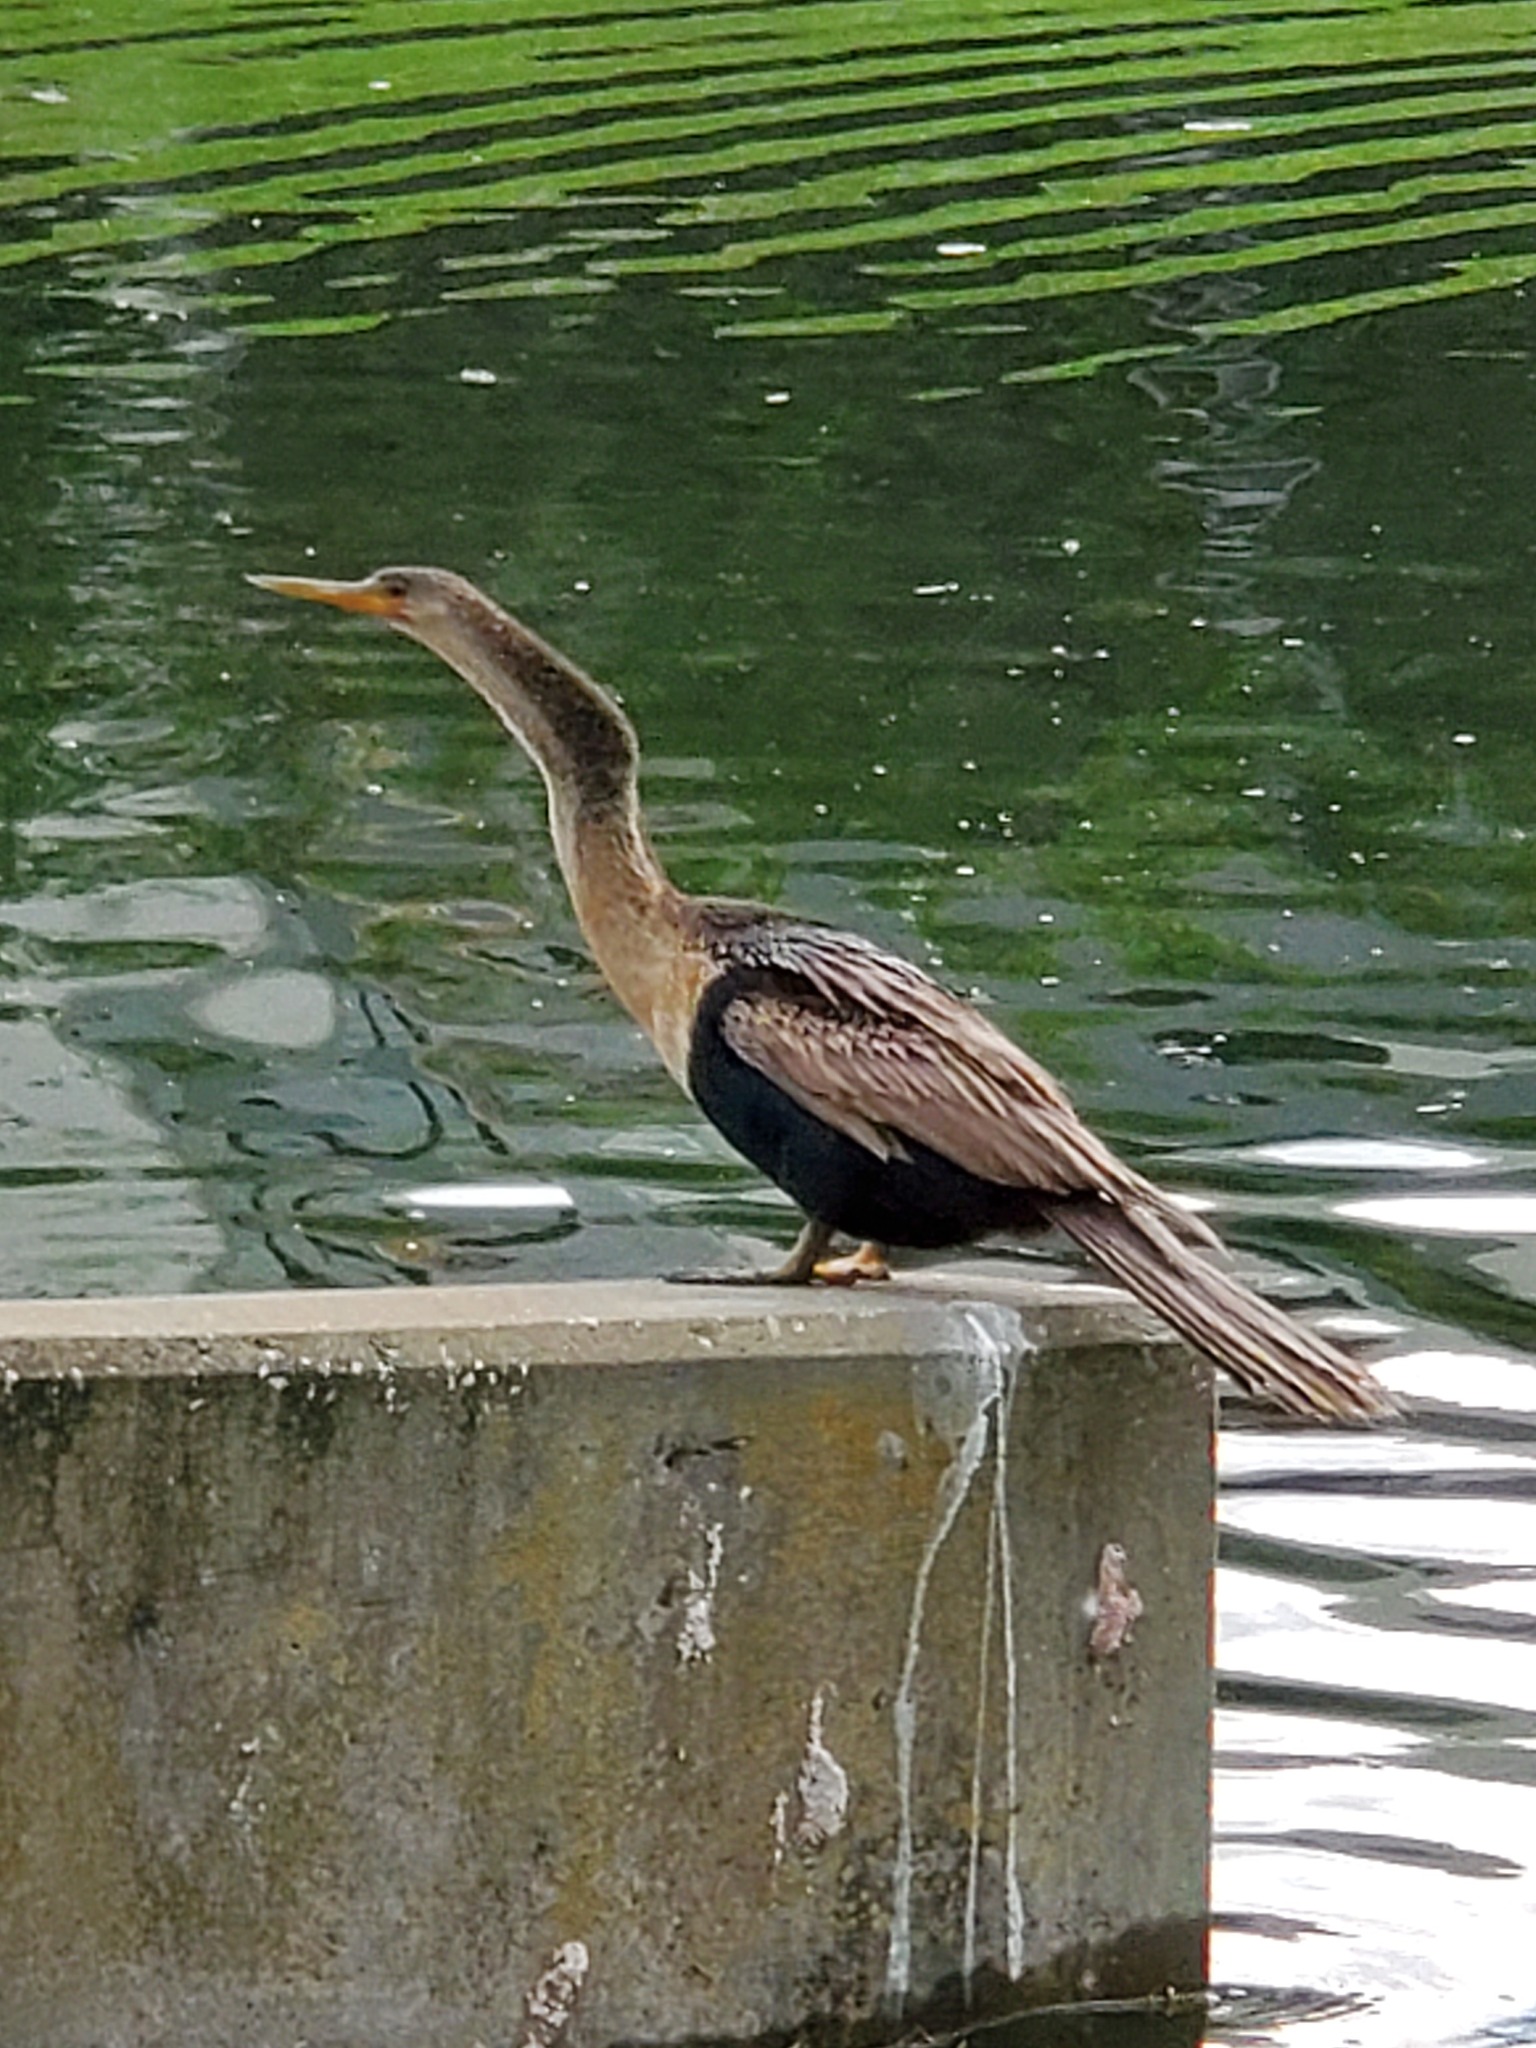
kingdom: Animalia
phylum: Chordata
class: Aves
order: Suliformes
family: Anhingidae
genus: Anhinga
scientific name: Anhinga anhinga
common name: Anhinga
